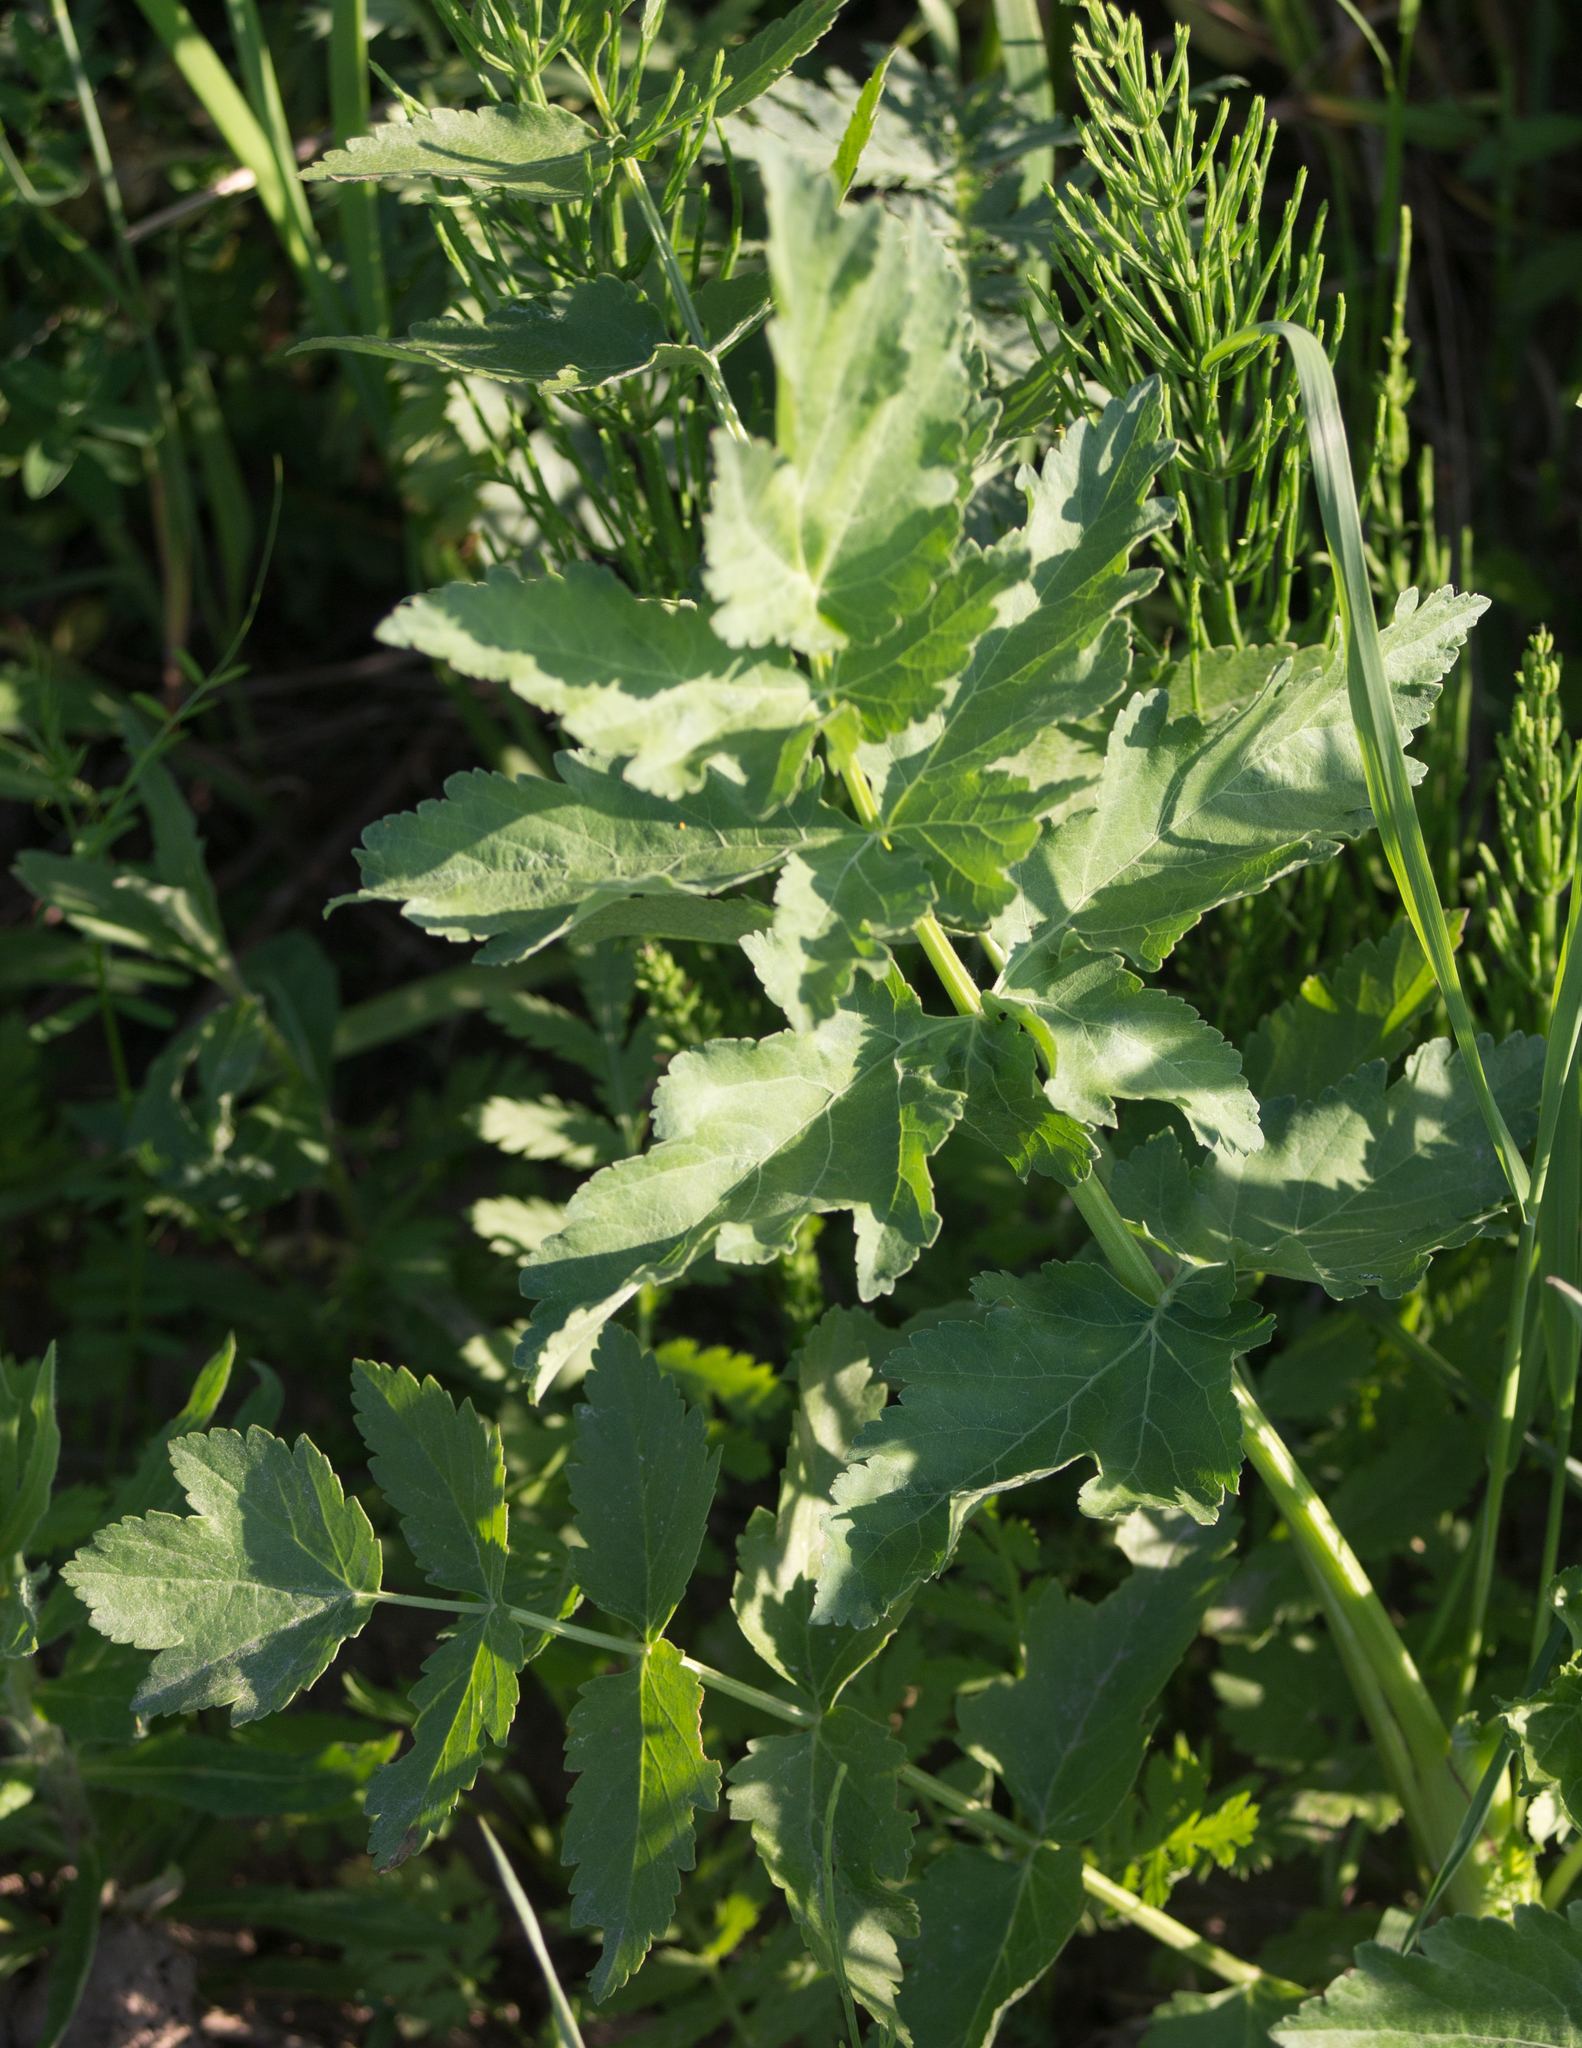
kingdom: Plantae
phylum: Tracheophyta
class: Magnoliopsida
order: Apiales
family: Apiaceae
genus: Pastinaca
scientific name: Pastinaca sativa
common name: Wild parsnip
